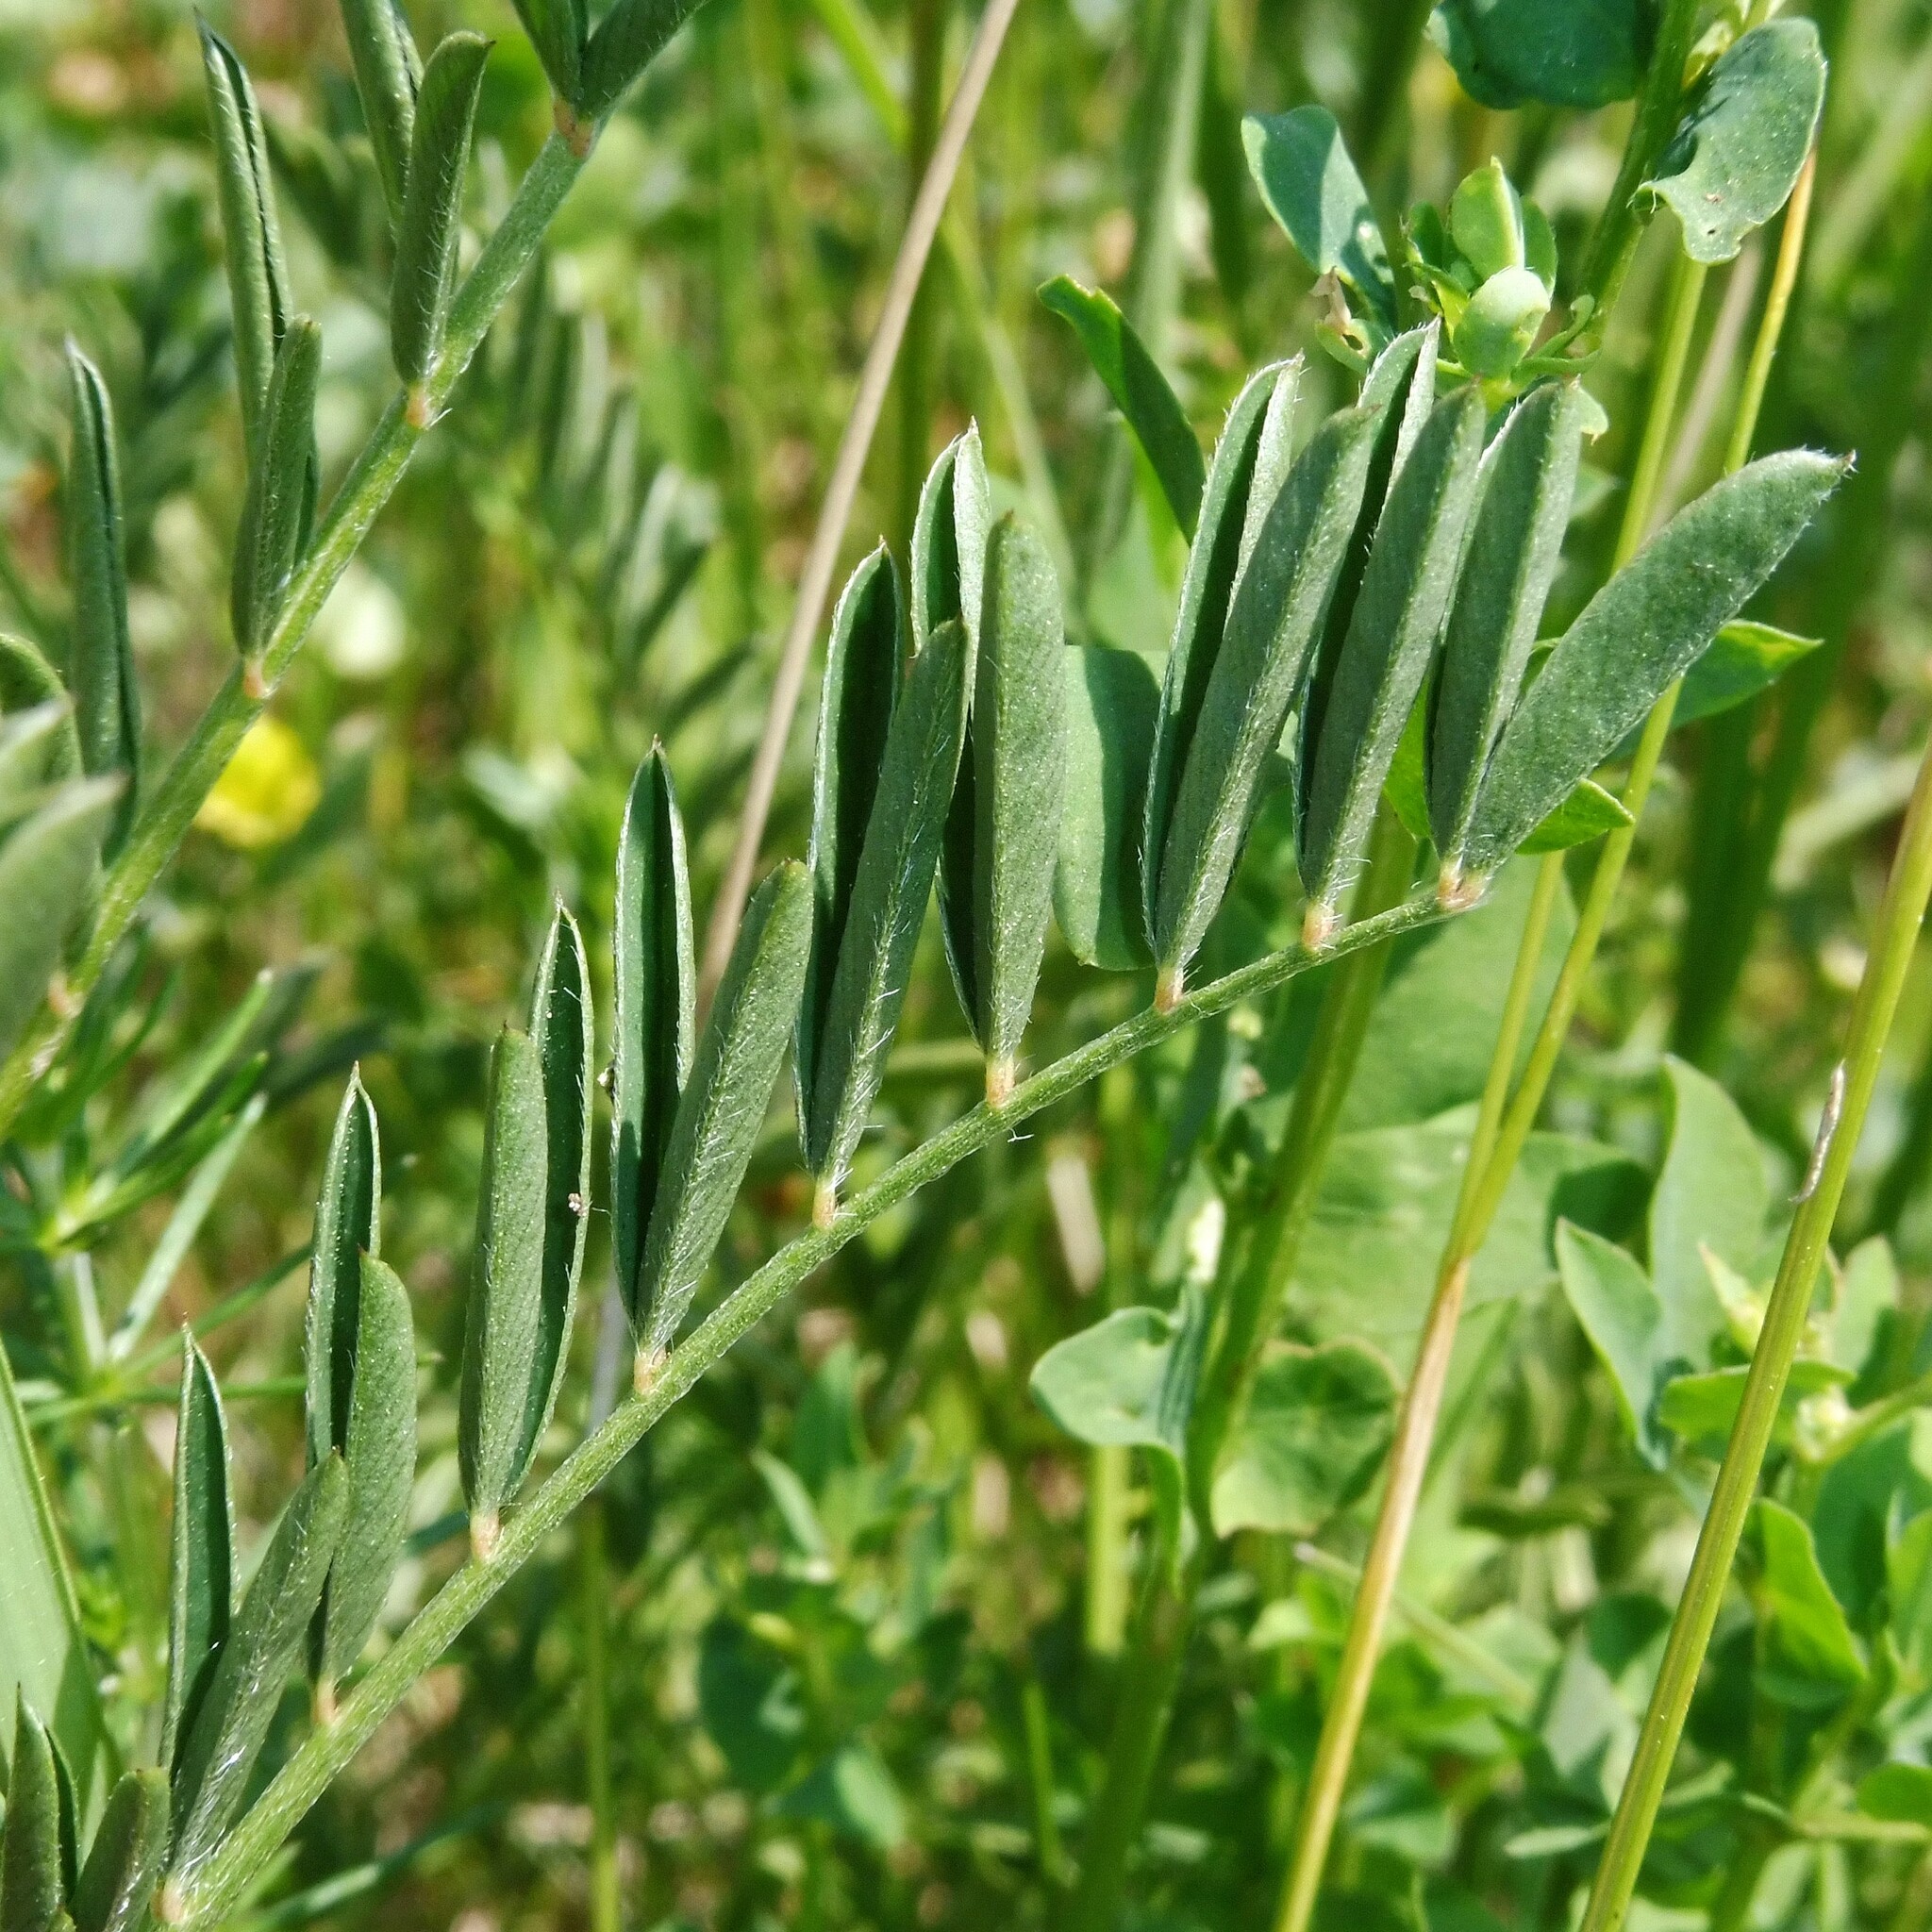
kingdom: Plantae
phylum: Tracheophyta
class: Magnoliopsida
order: Fabales
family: Fabaceae
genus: Onobrychis
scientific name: Onobrychis viciifolia
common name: Sainfoin
